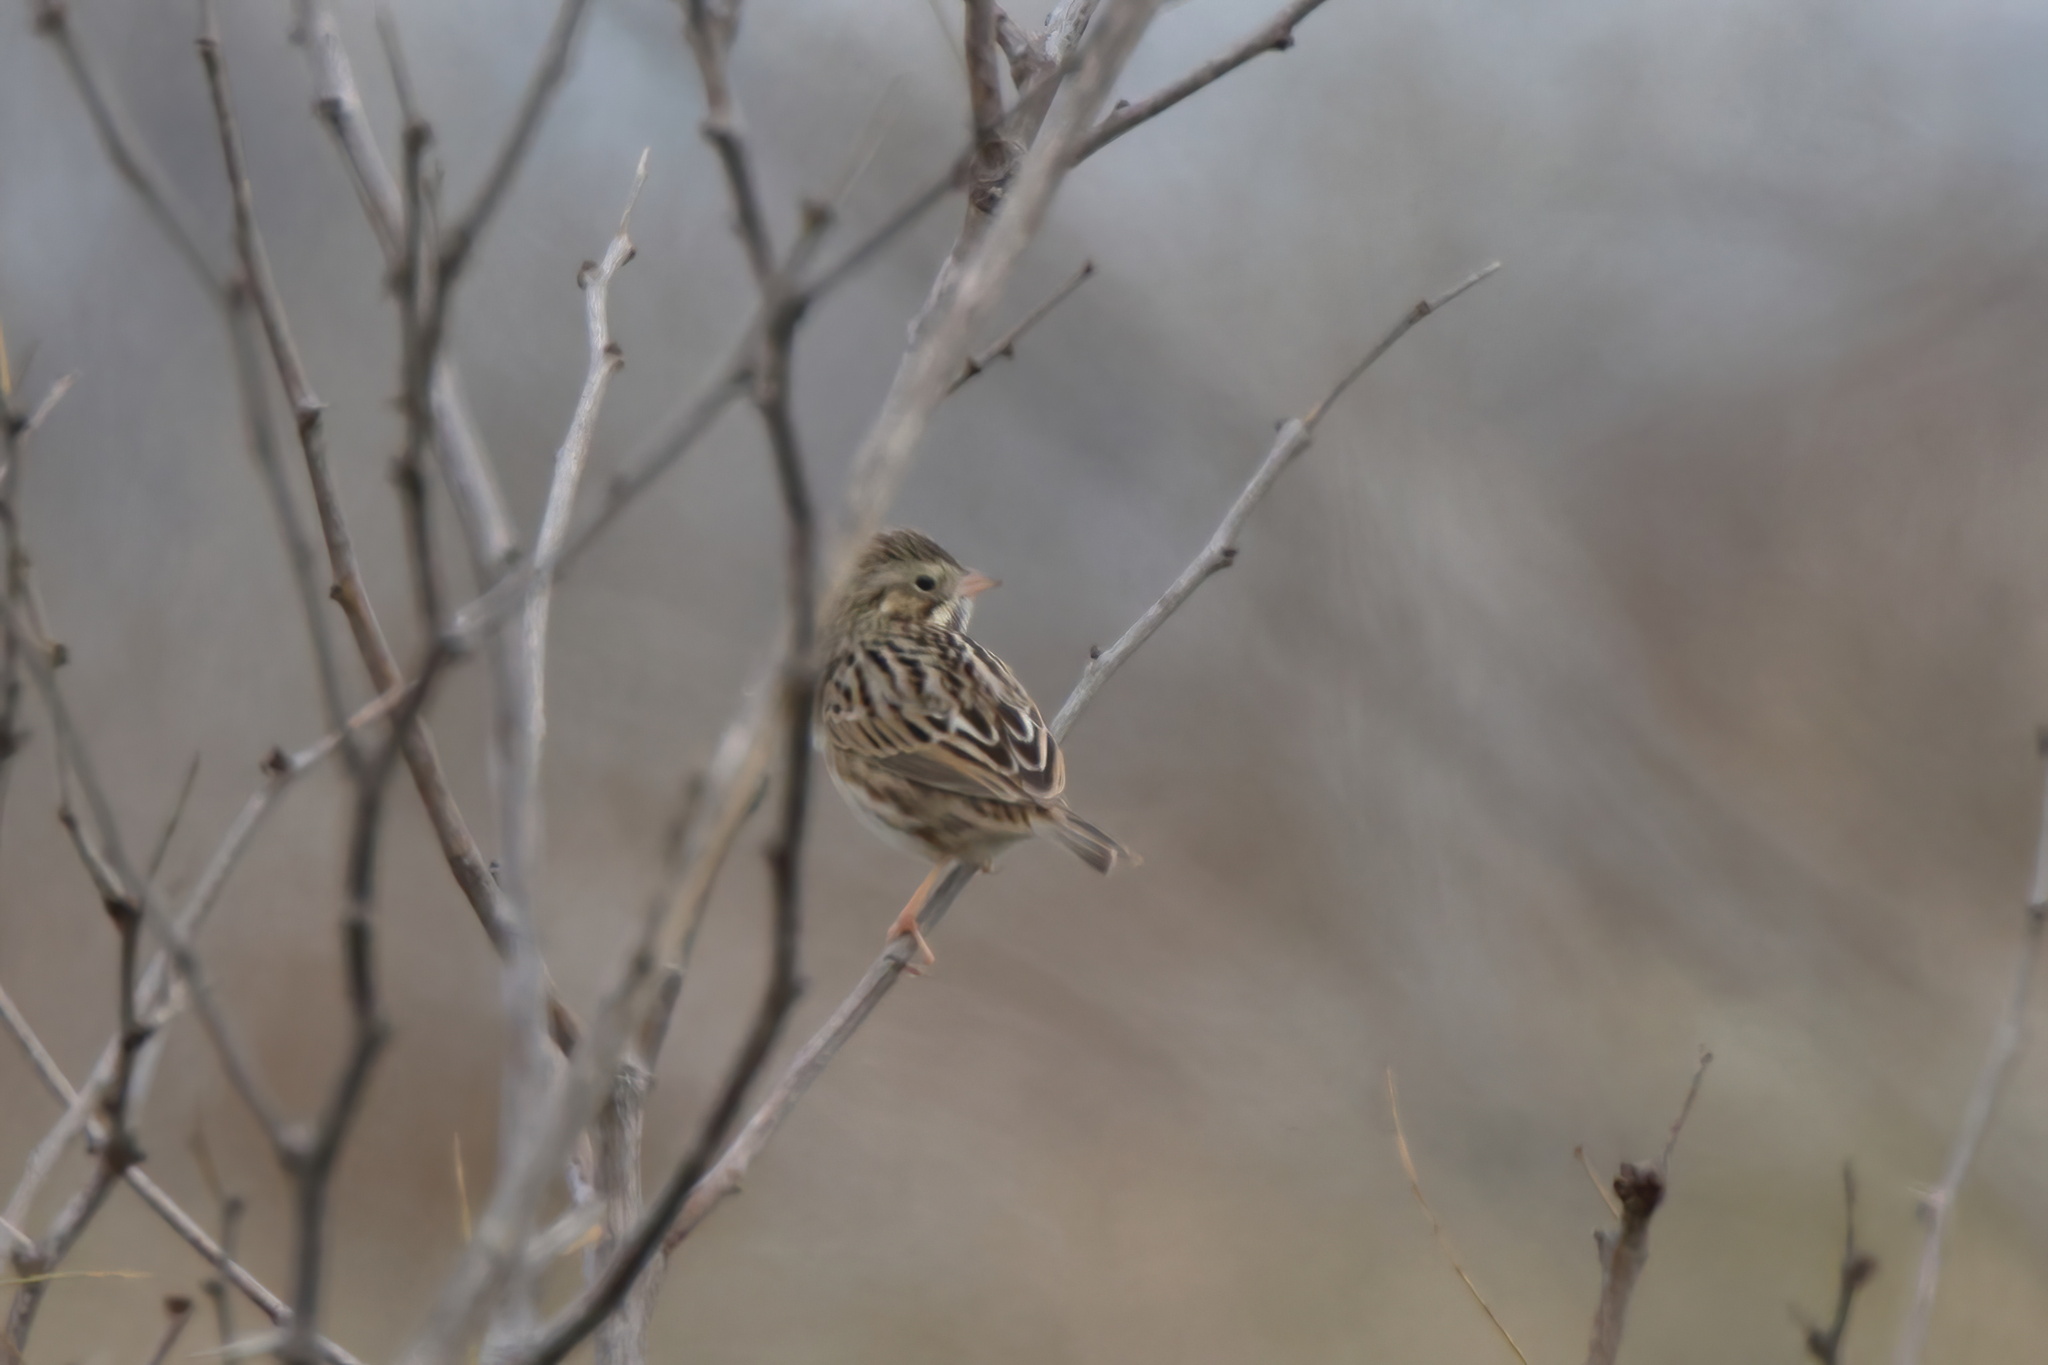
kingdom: Animalia
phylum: Chordata
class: Aves
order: Passeriformes
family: Passerellidae
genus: Passerculus
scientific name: Passerculus sandwichensis
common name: Savannah sparrow
